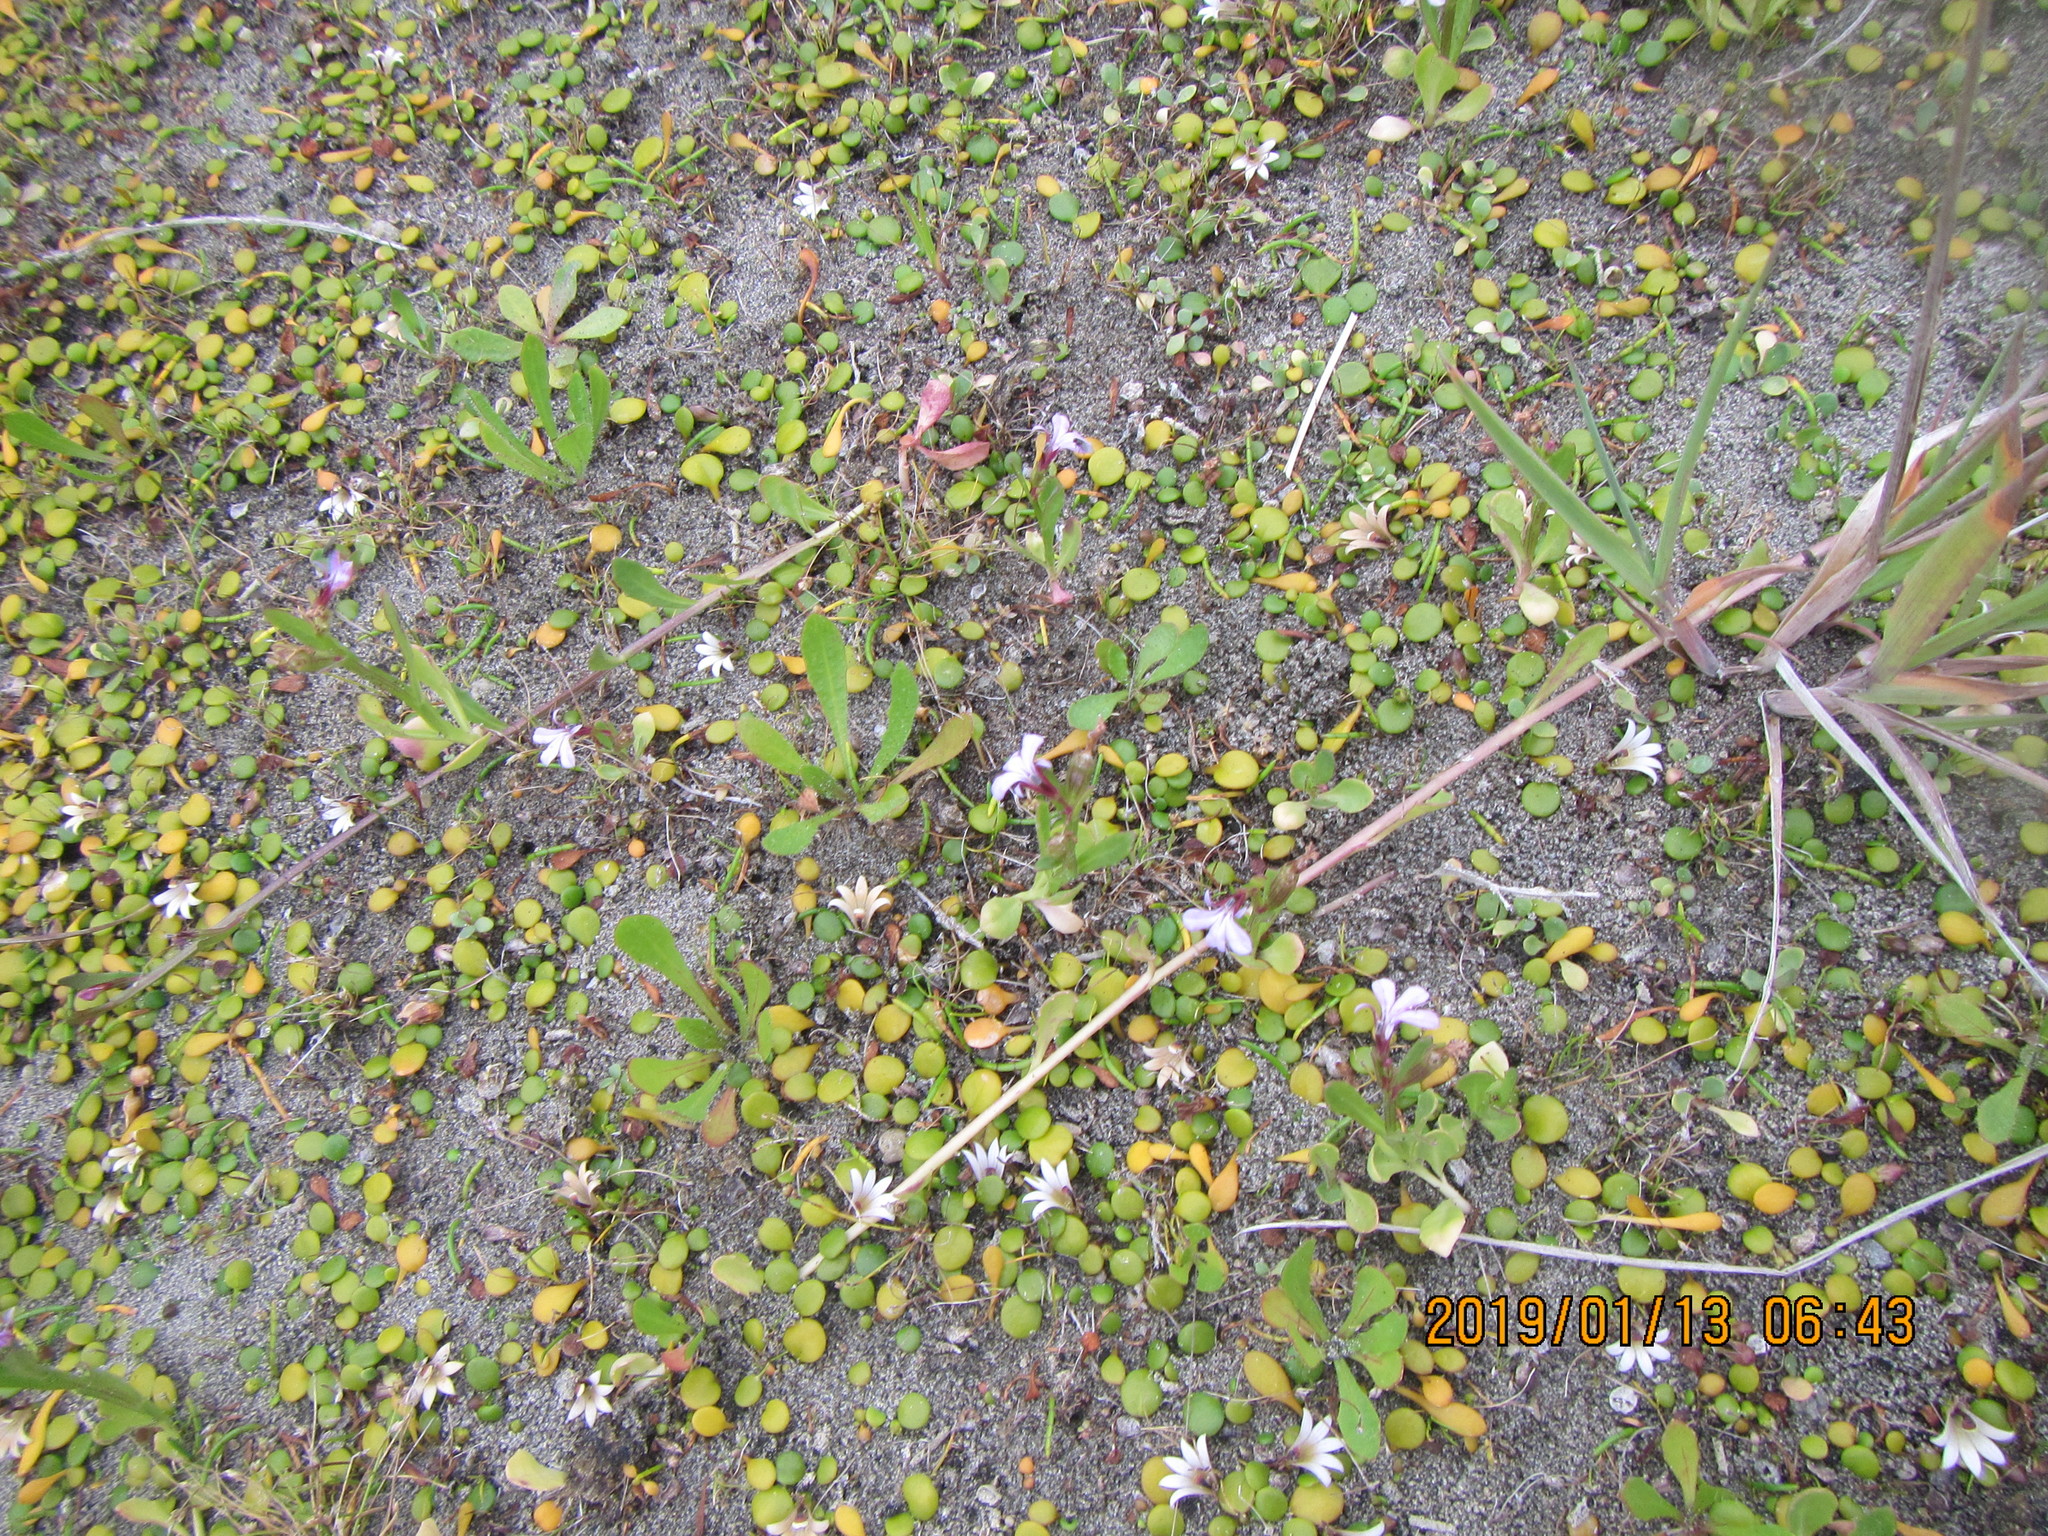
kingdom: Plantae
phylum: Tracheophyta
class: Magnoliopsida
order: Asterales
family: Campanulaceae
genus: Lobelia
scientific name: Lobelia anceps
